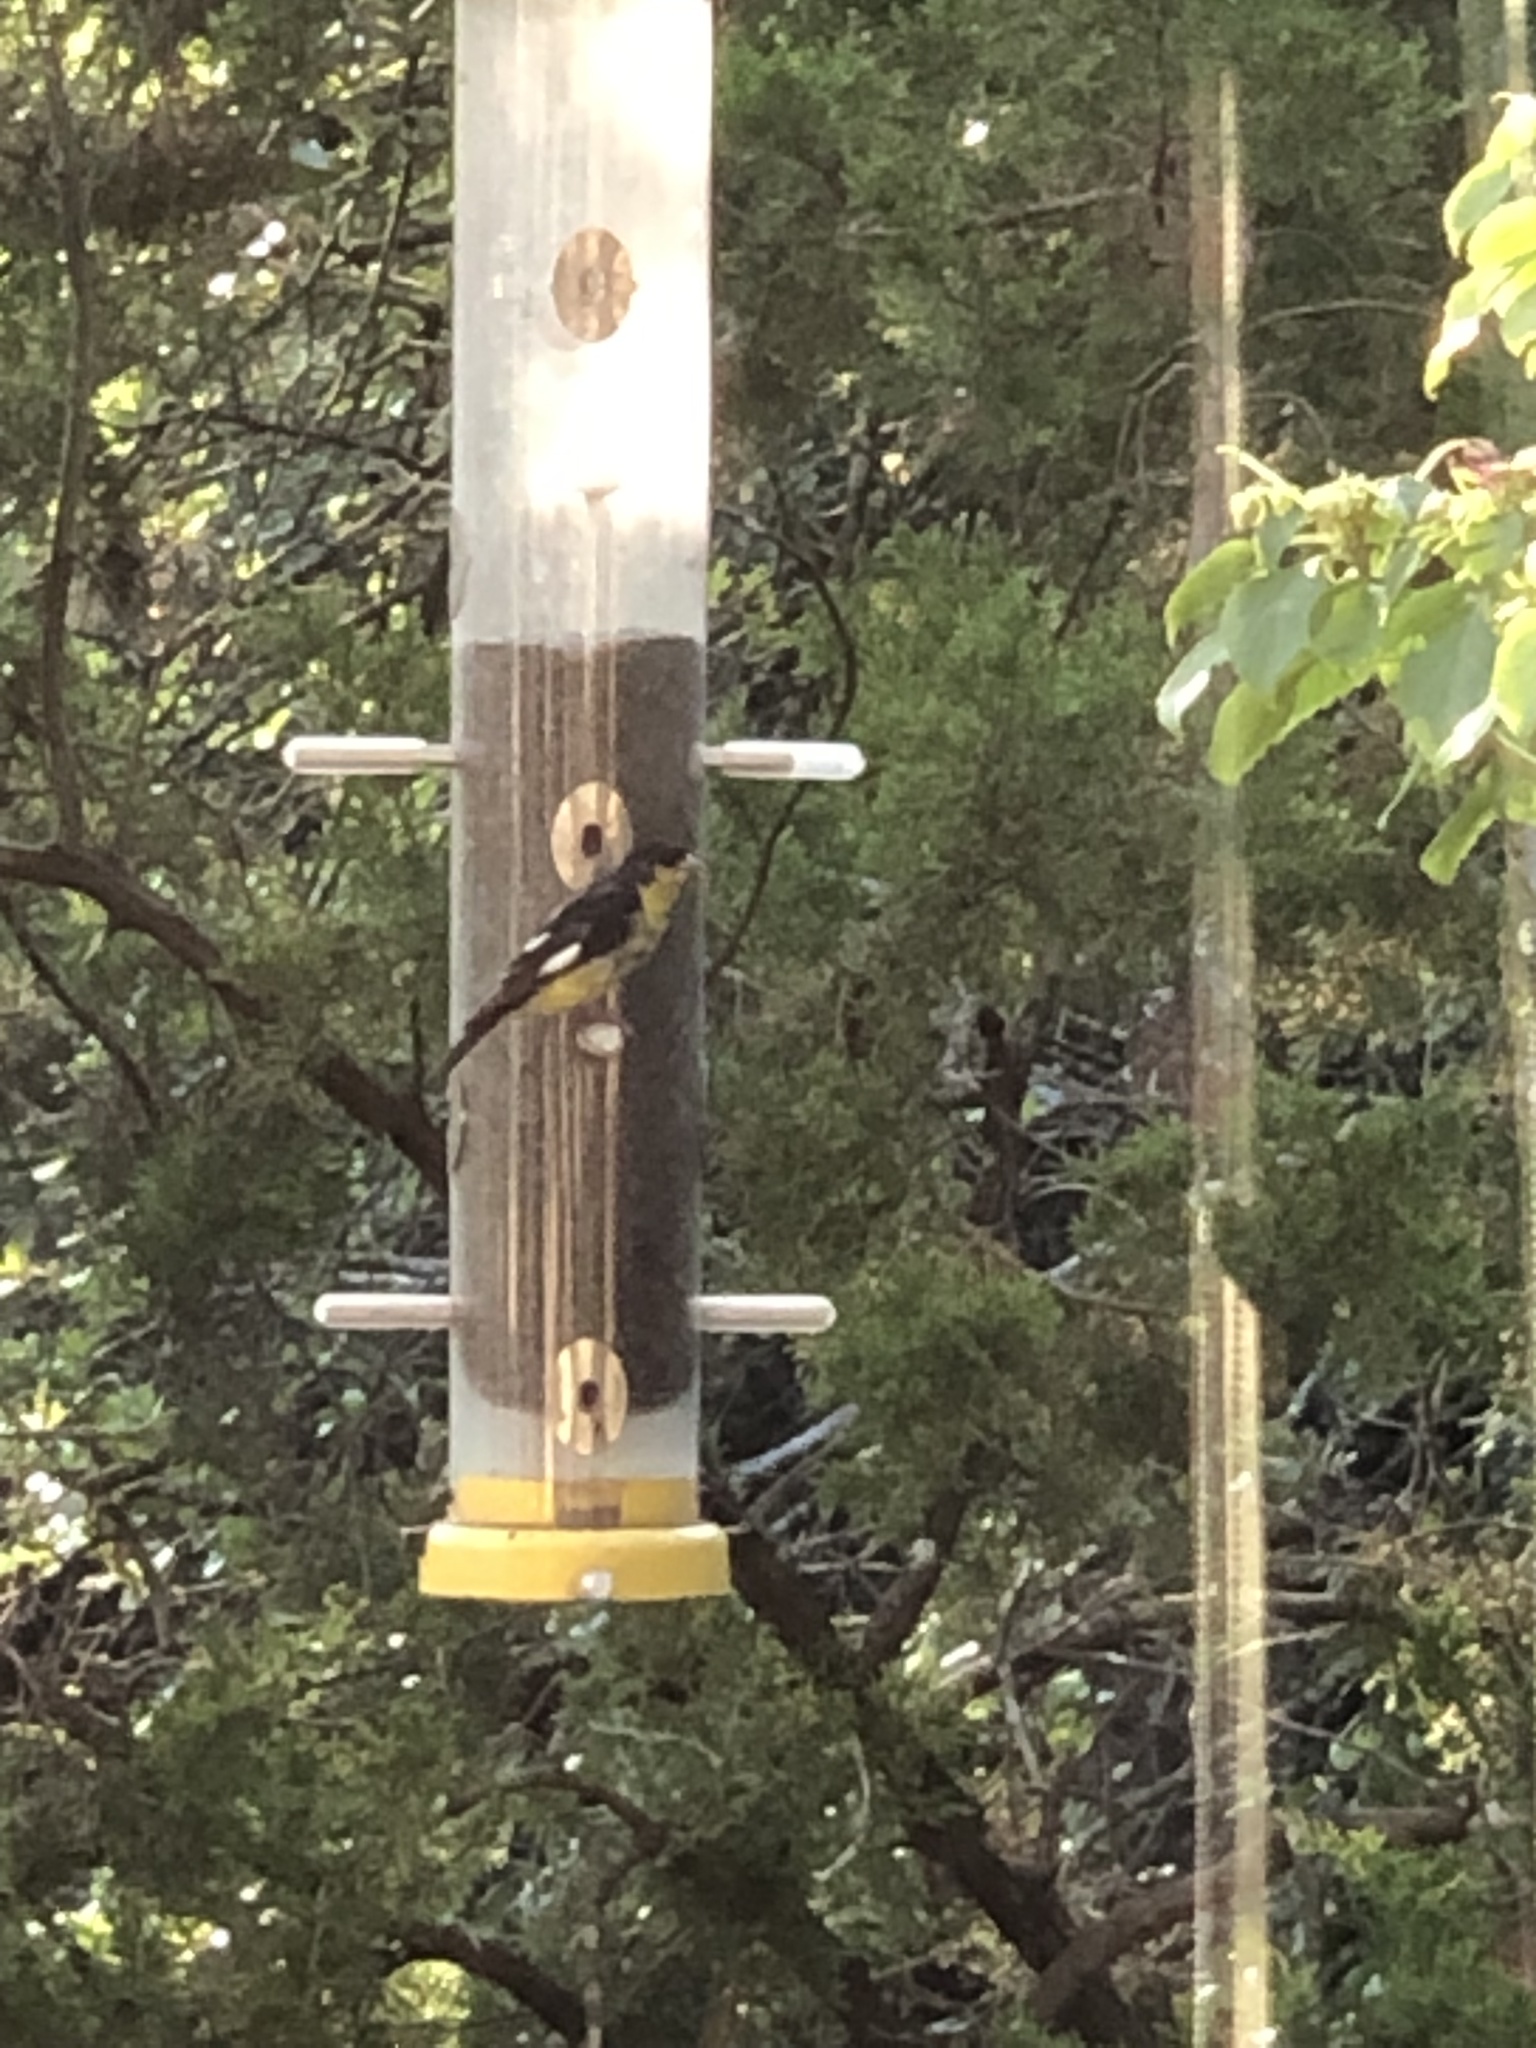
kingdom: Animalia
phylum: Chordata
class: Aves
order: Passeriformes
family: Fringillidae
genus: Spinus
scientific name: Spinus psaltria
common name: Lesser goldfinch
